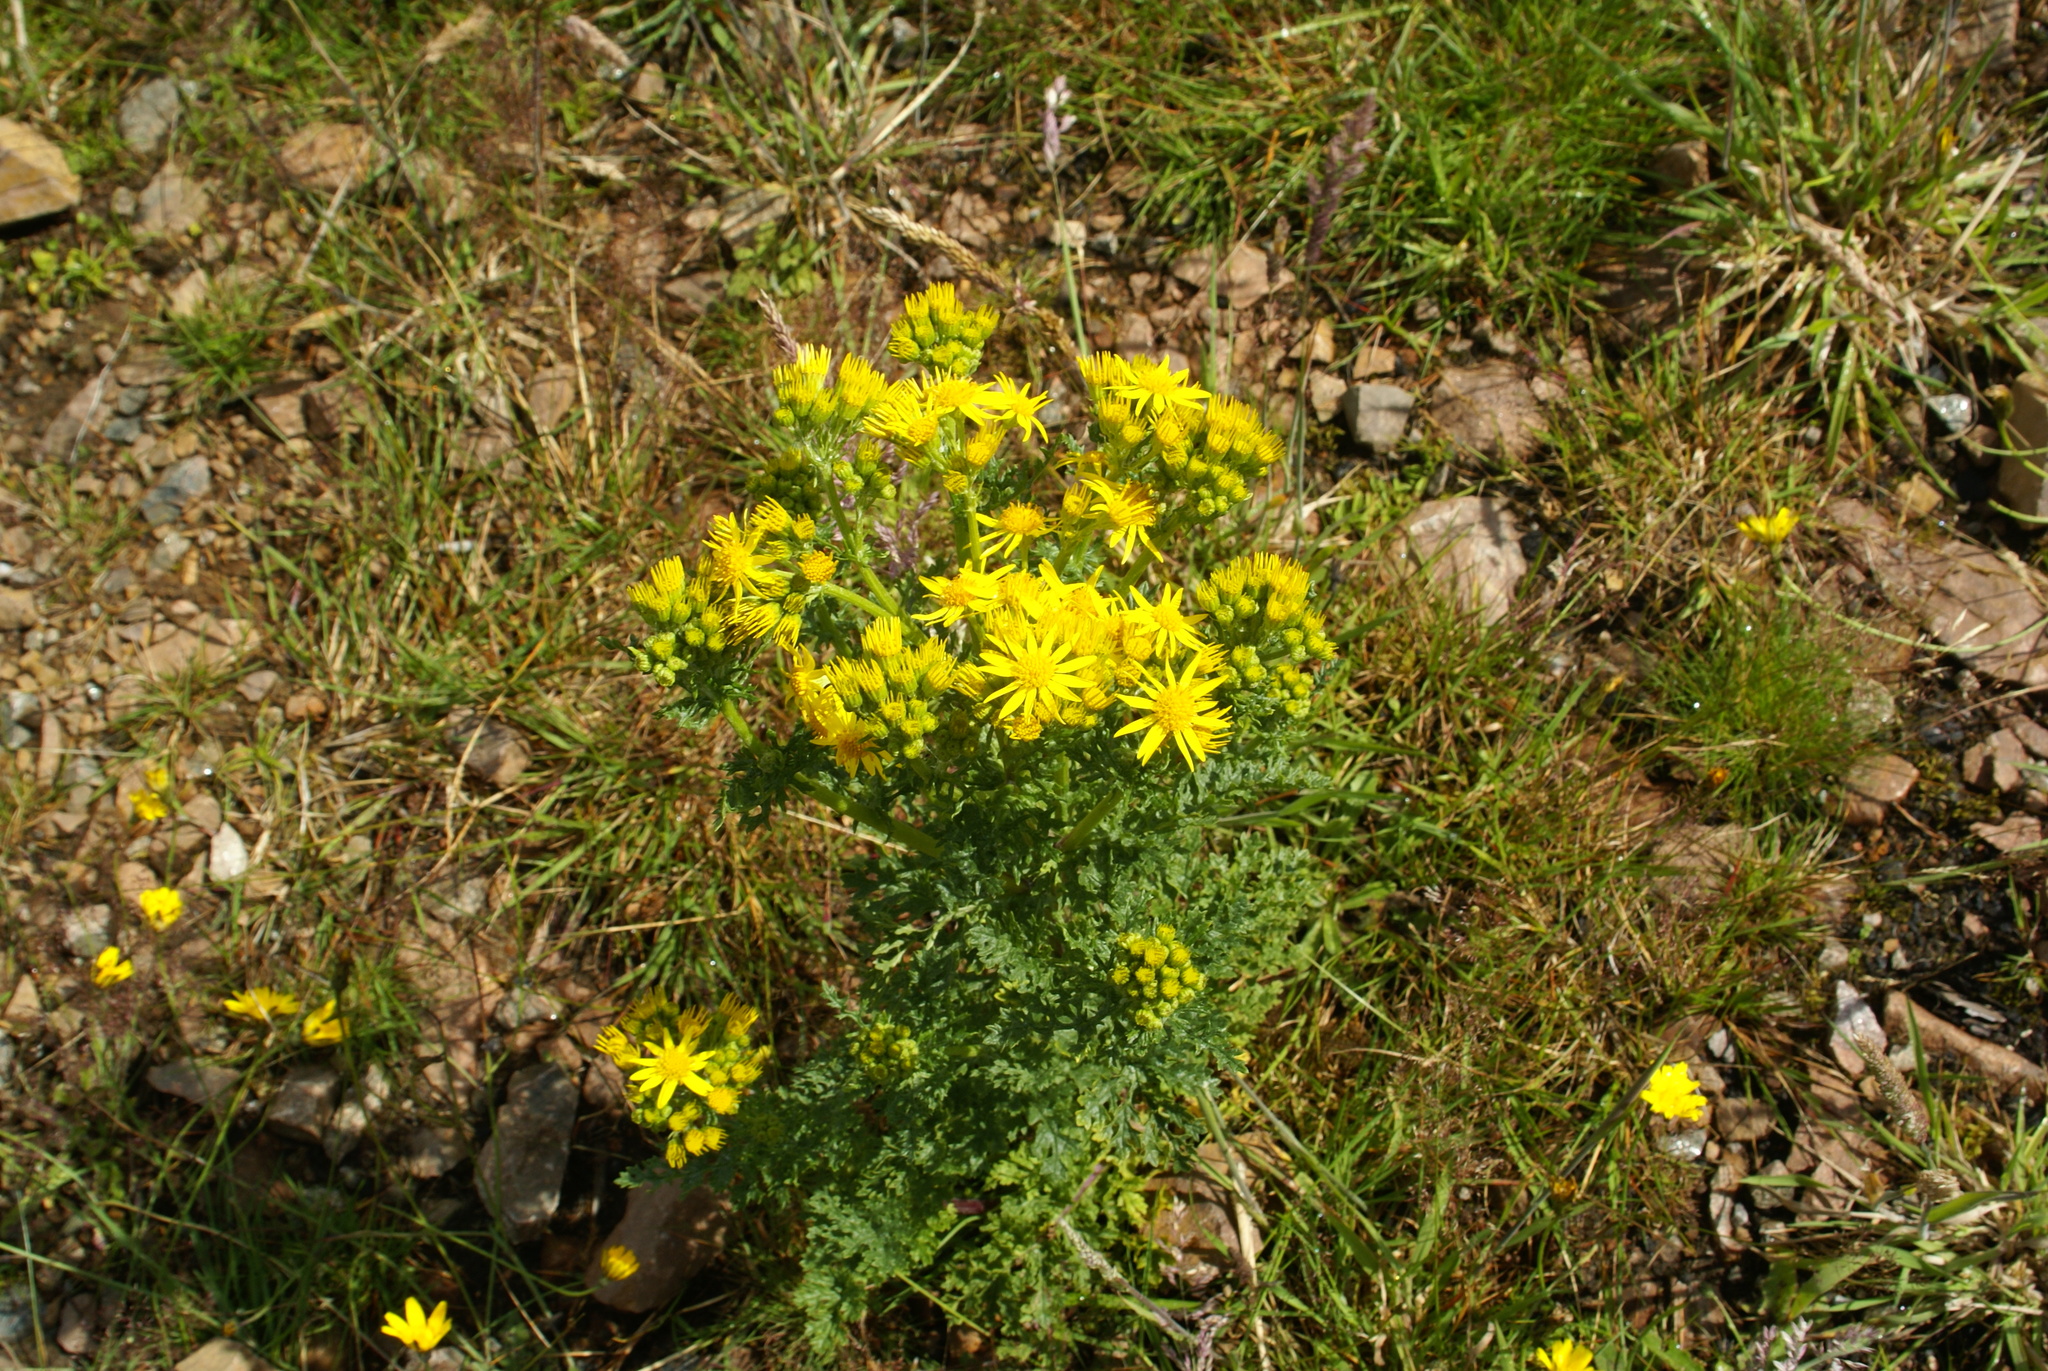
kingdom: Plantae
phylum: Tracheophyta
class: Magnoliopsida
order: Asterales
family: Asteraceae
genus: Jacobaea
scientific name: Jacobaea vulgaris
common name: Stinking willie
